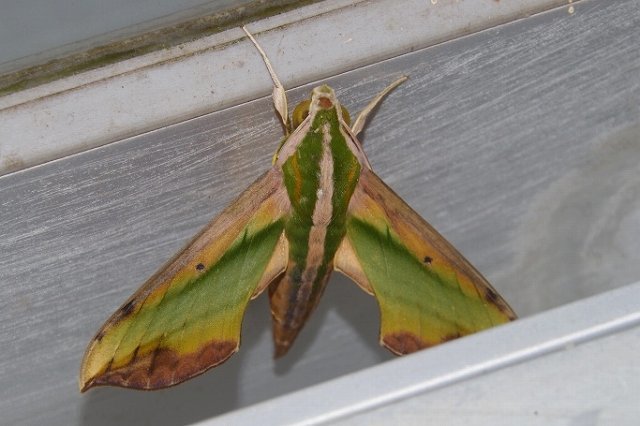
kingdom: Animalia
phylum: Arthropoda
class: Insecta
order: Lepidoptera
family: Sphingidae
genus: Pergesa
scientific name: Pergesa acteus
